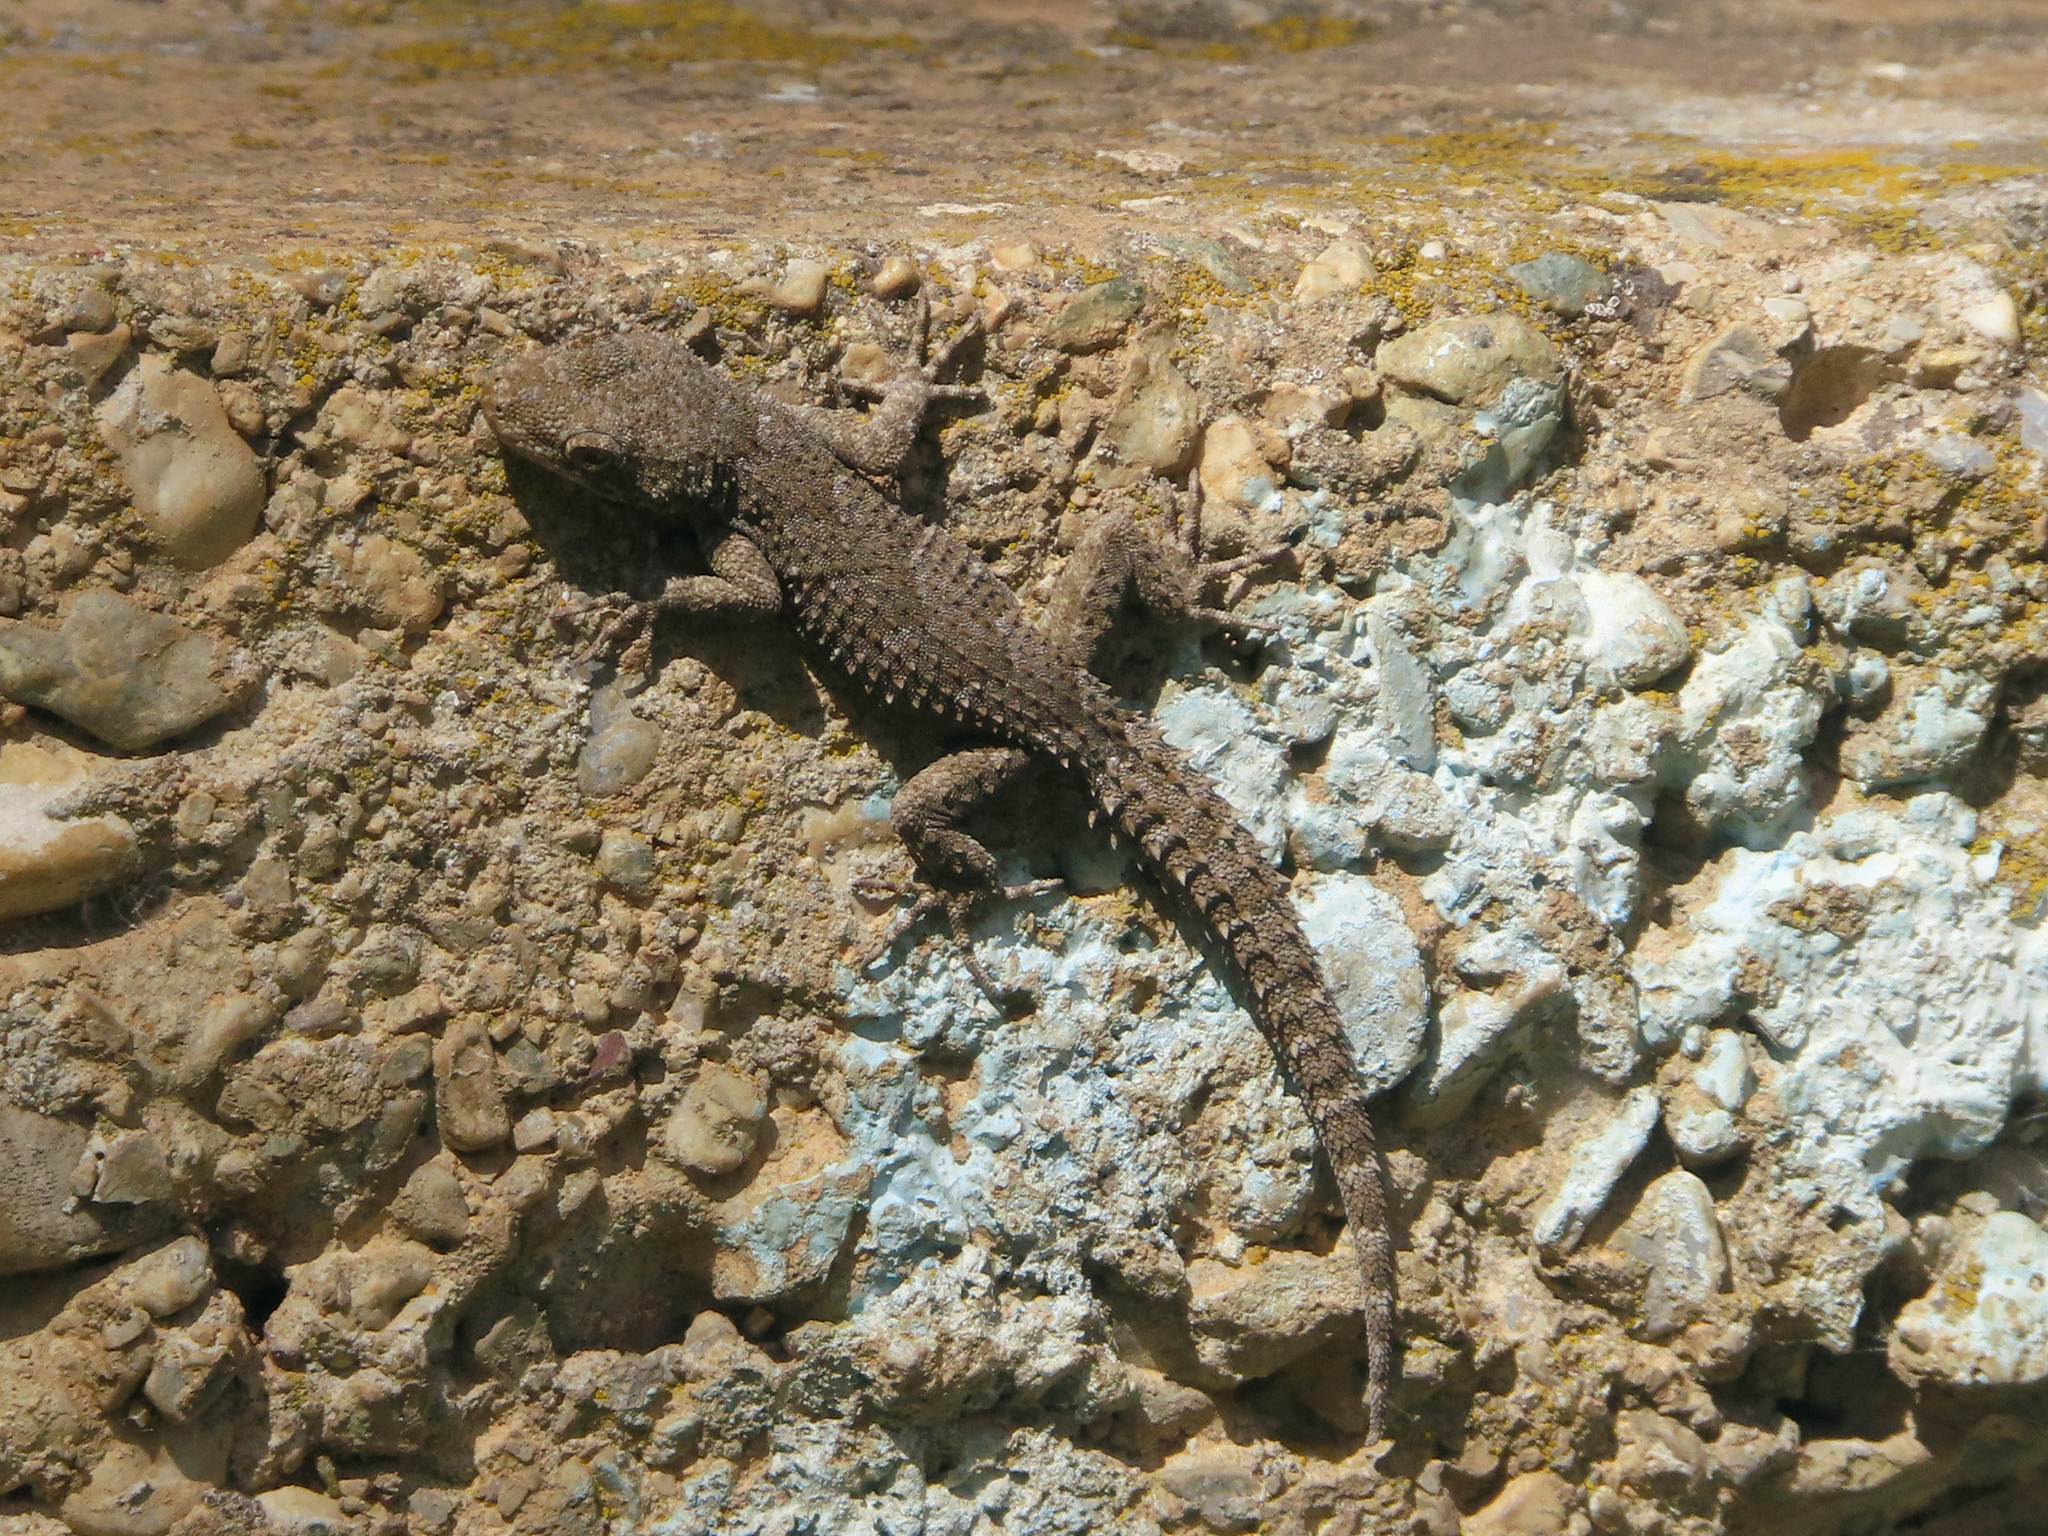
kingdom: Animalia
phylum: Chordata
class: Squamata
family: Gekkonidae
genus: Mediodactylus
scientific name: Mediodactylus kotschyi
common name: Kotschy's gecko
